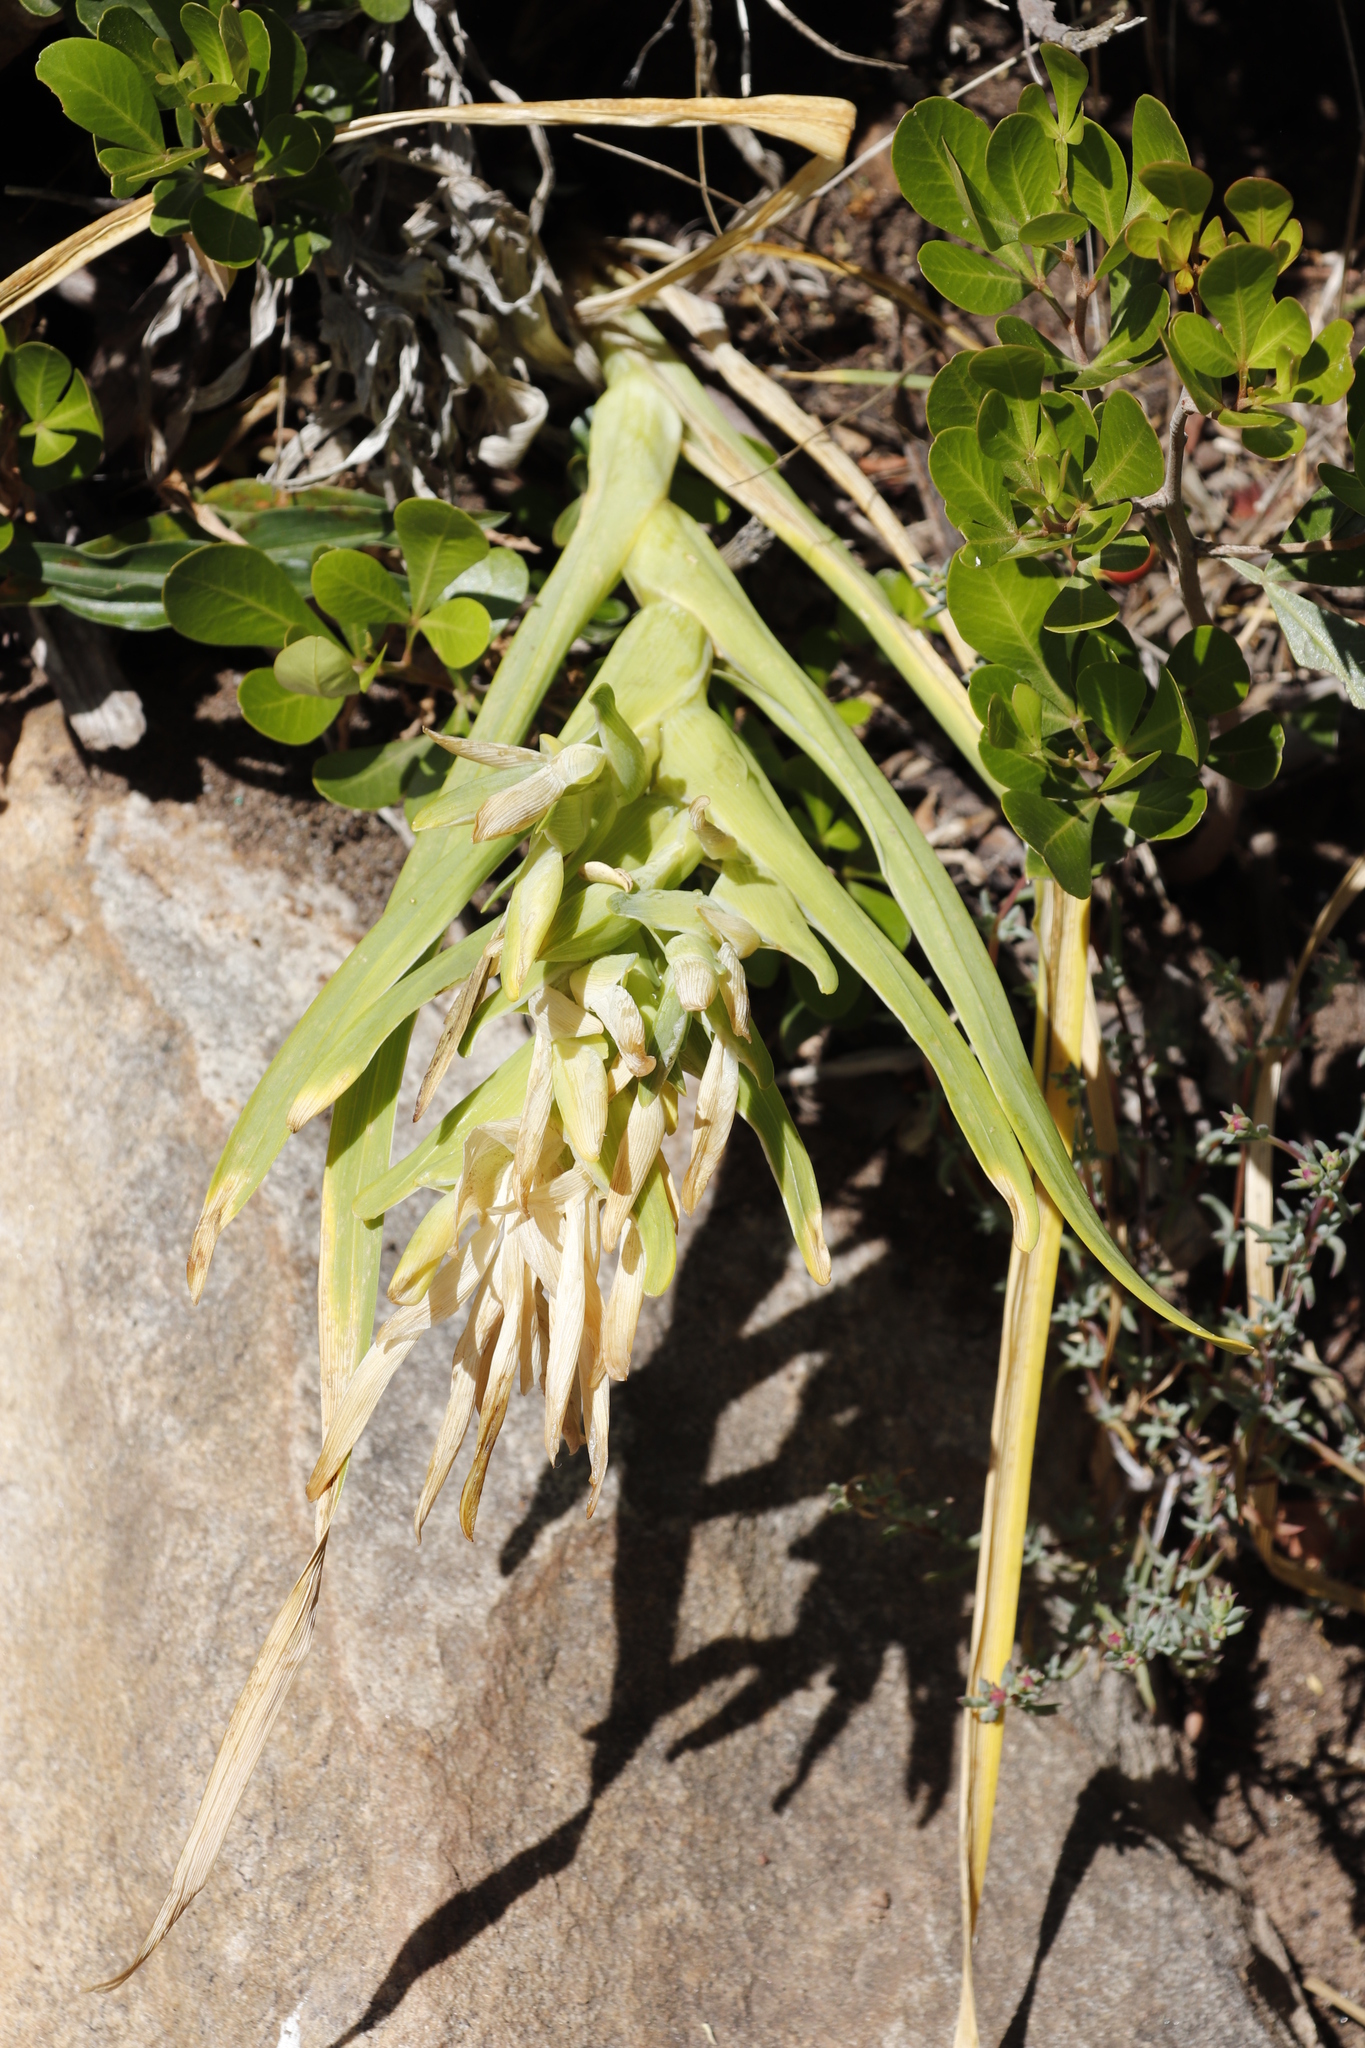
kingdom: Plantae
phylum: Tracheophyta
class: Liliopsida
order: Asparagales
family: Iridaceae
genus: Ferraria
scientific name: Ferraria crispa
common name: Black-flag
